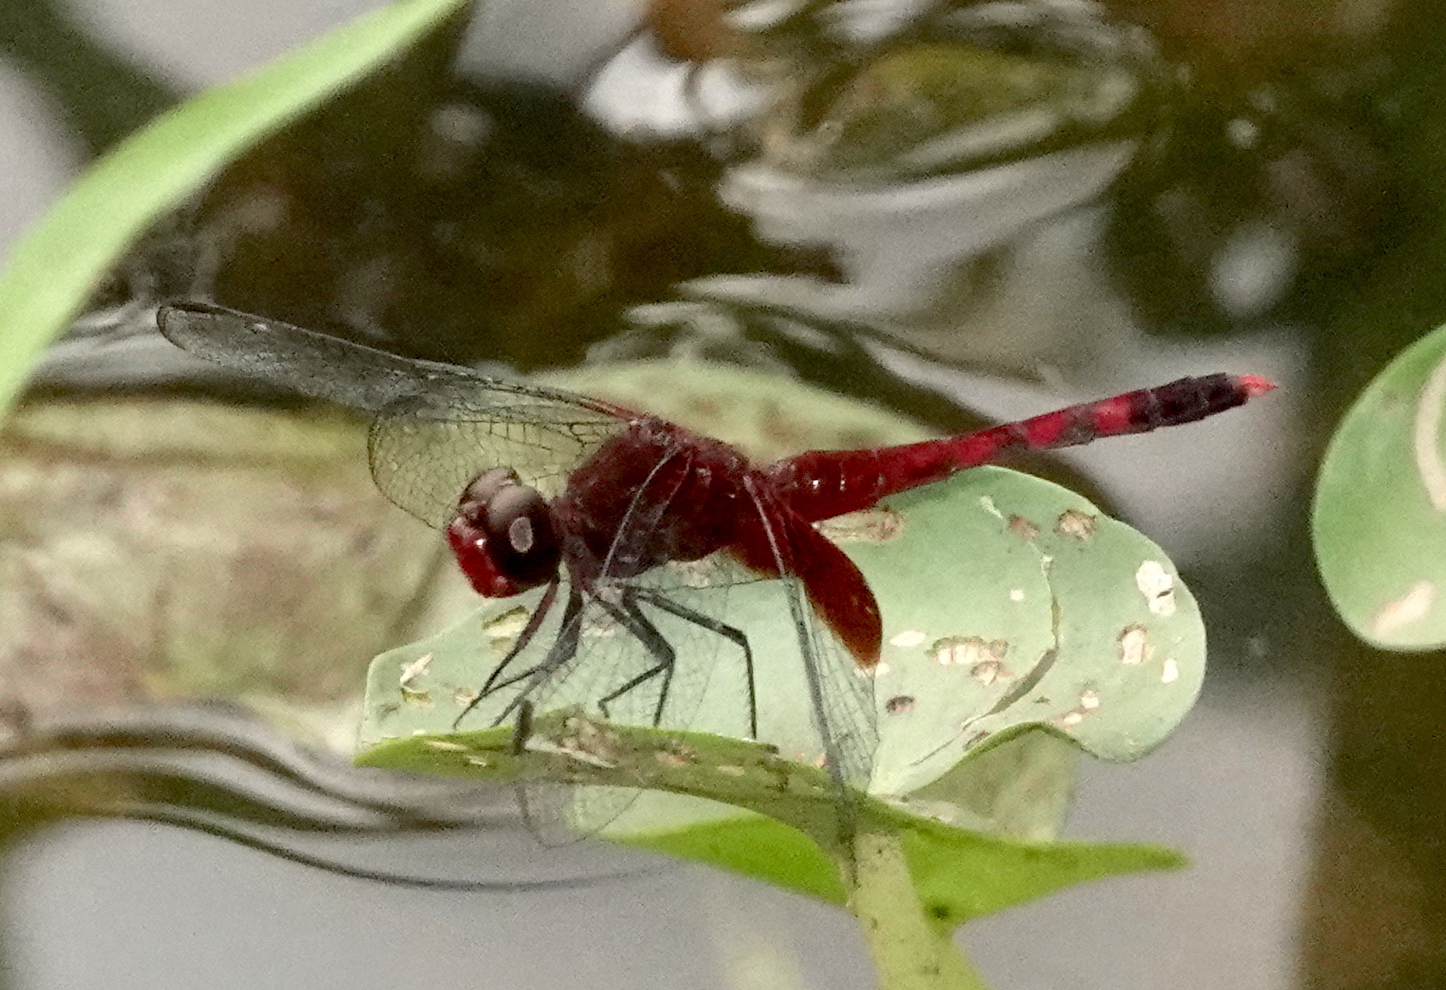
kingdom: Animalia
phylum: Arthropoda
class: Insecta
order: Odonata
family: Libellulidae
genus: Erythrodiplax
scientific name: Erythrodiplax fervida
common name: Red-mantled dragonlet
